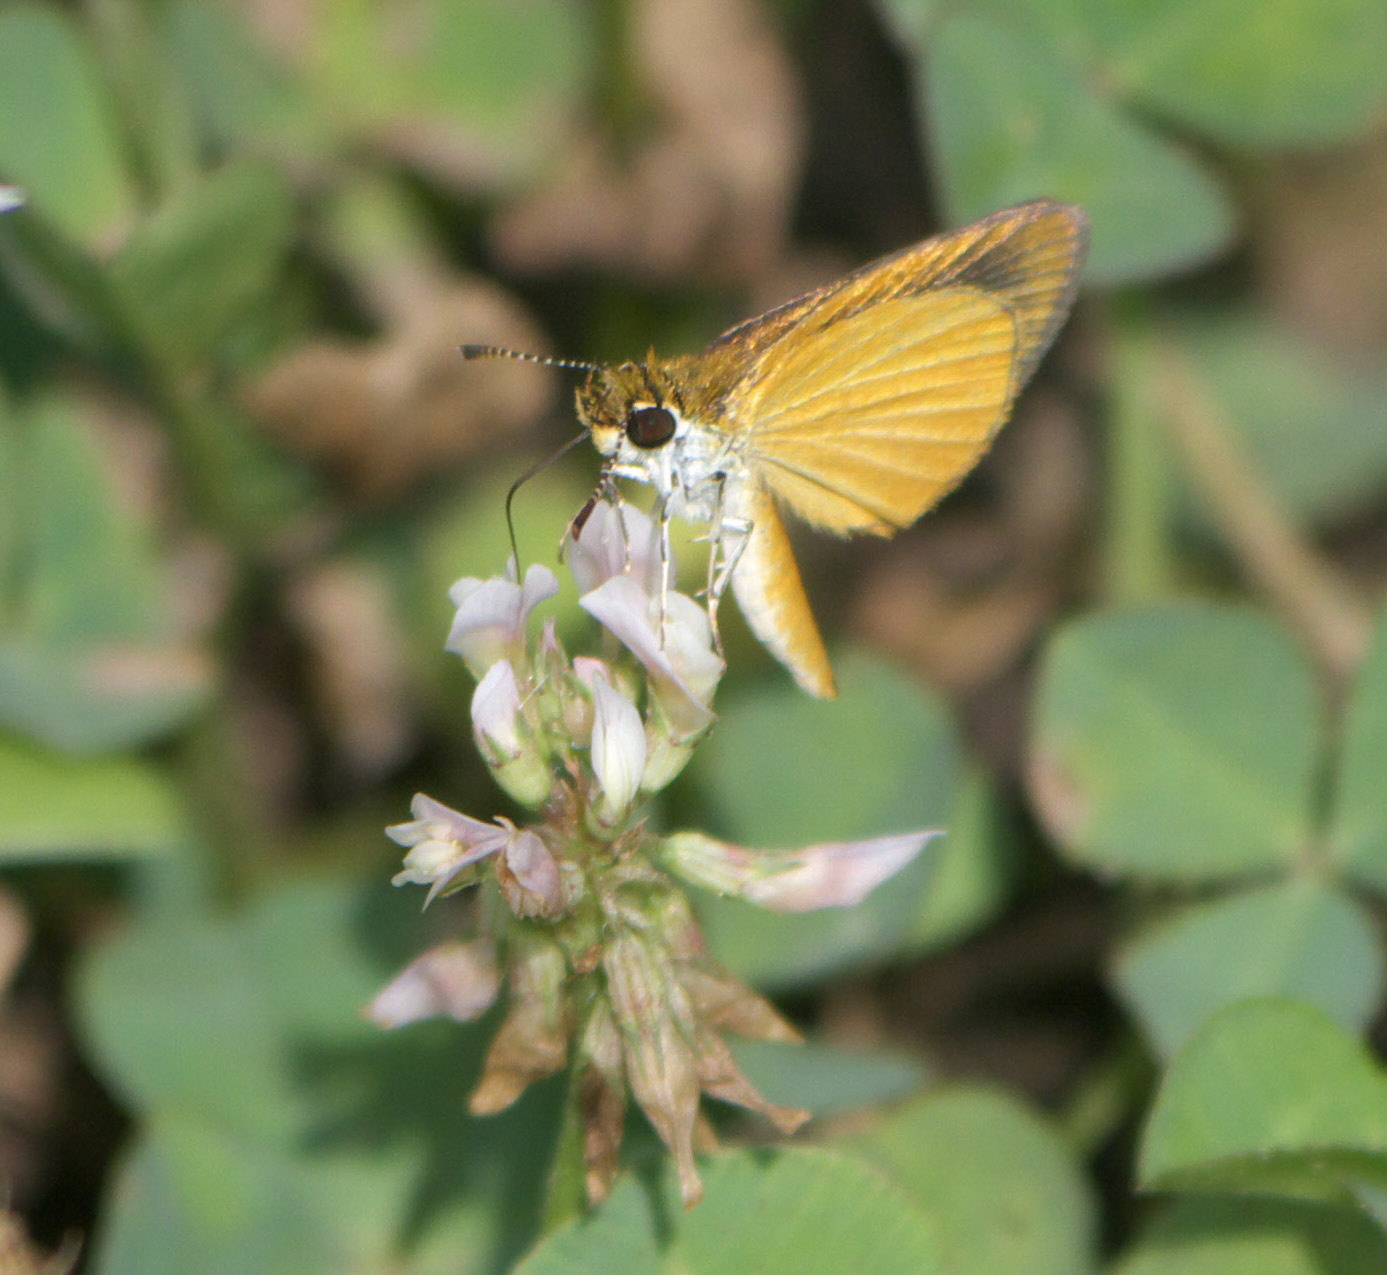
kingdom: Animalia
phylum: Arthropoda
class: Insecta
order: Lepidoptera
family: Hesperiidae
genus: Ancyloxypha
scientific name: Ancyloxypha numitor
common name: Least skipper
